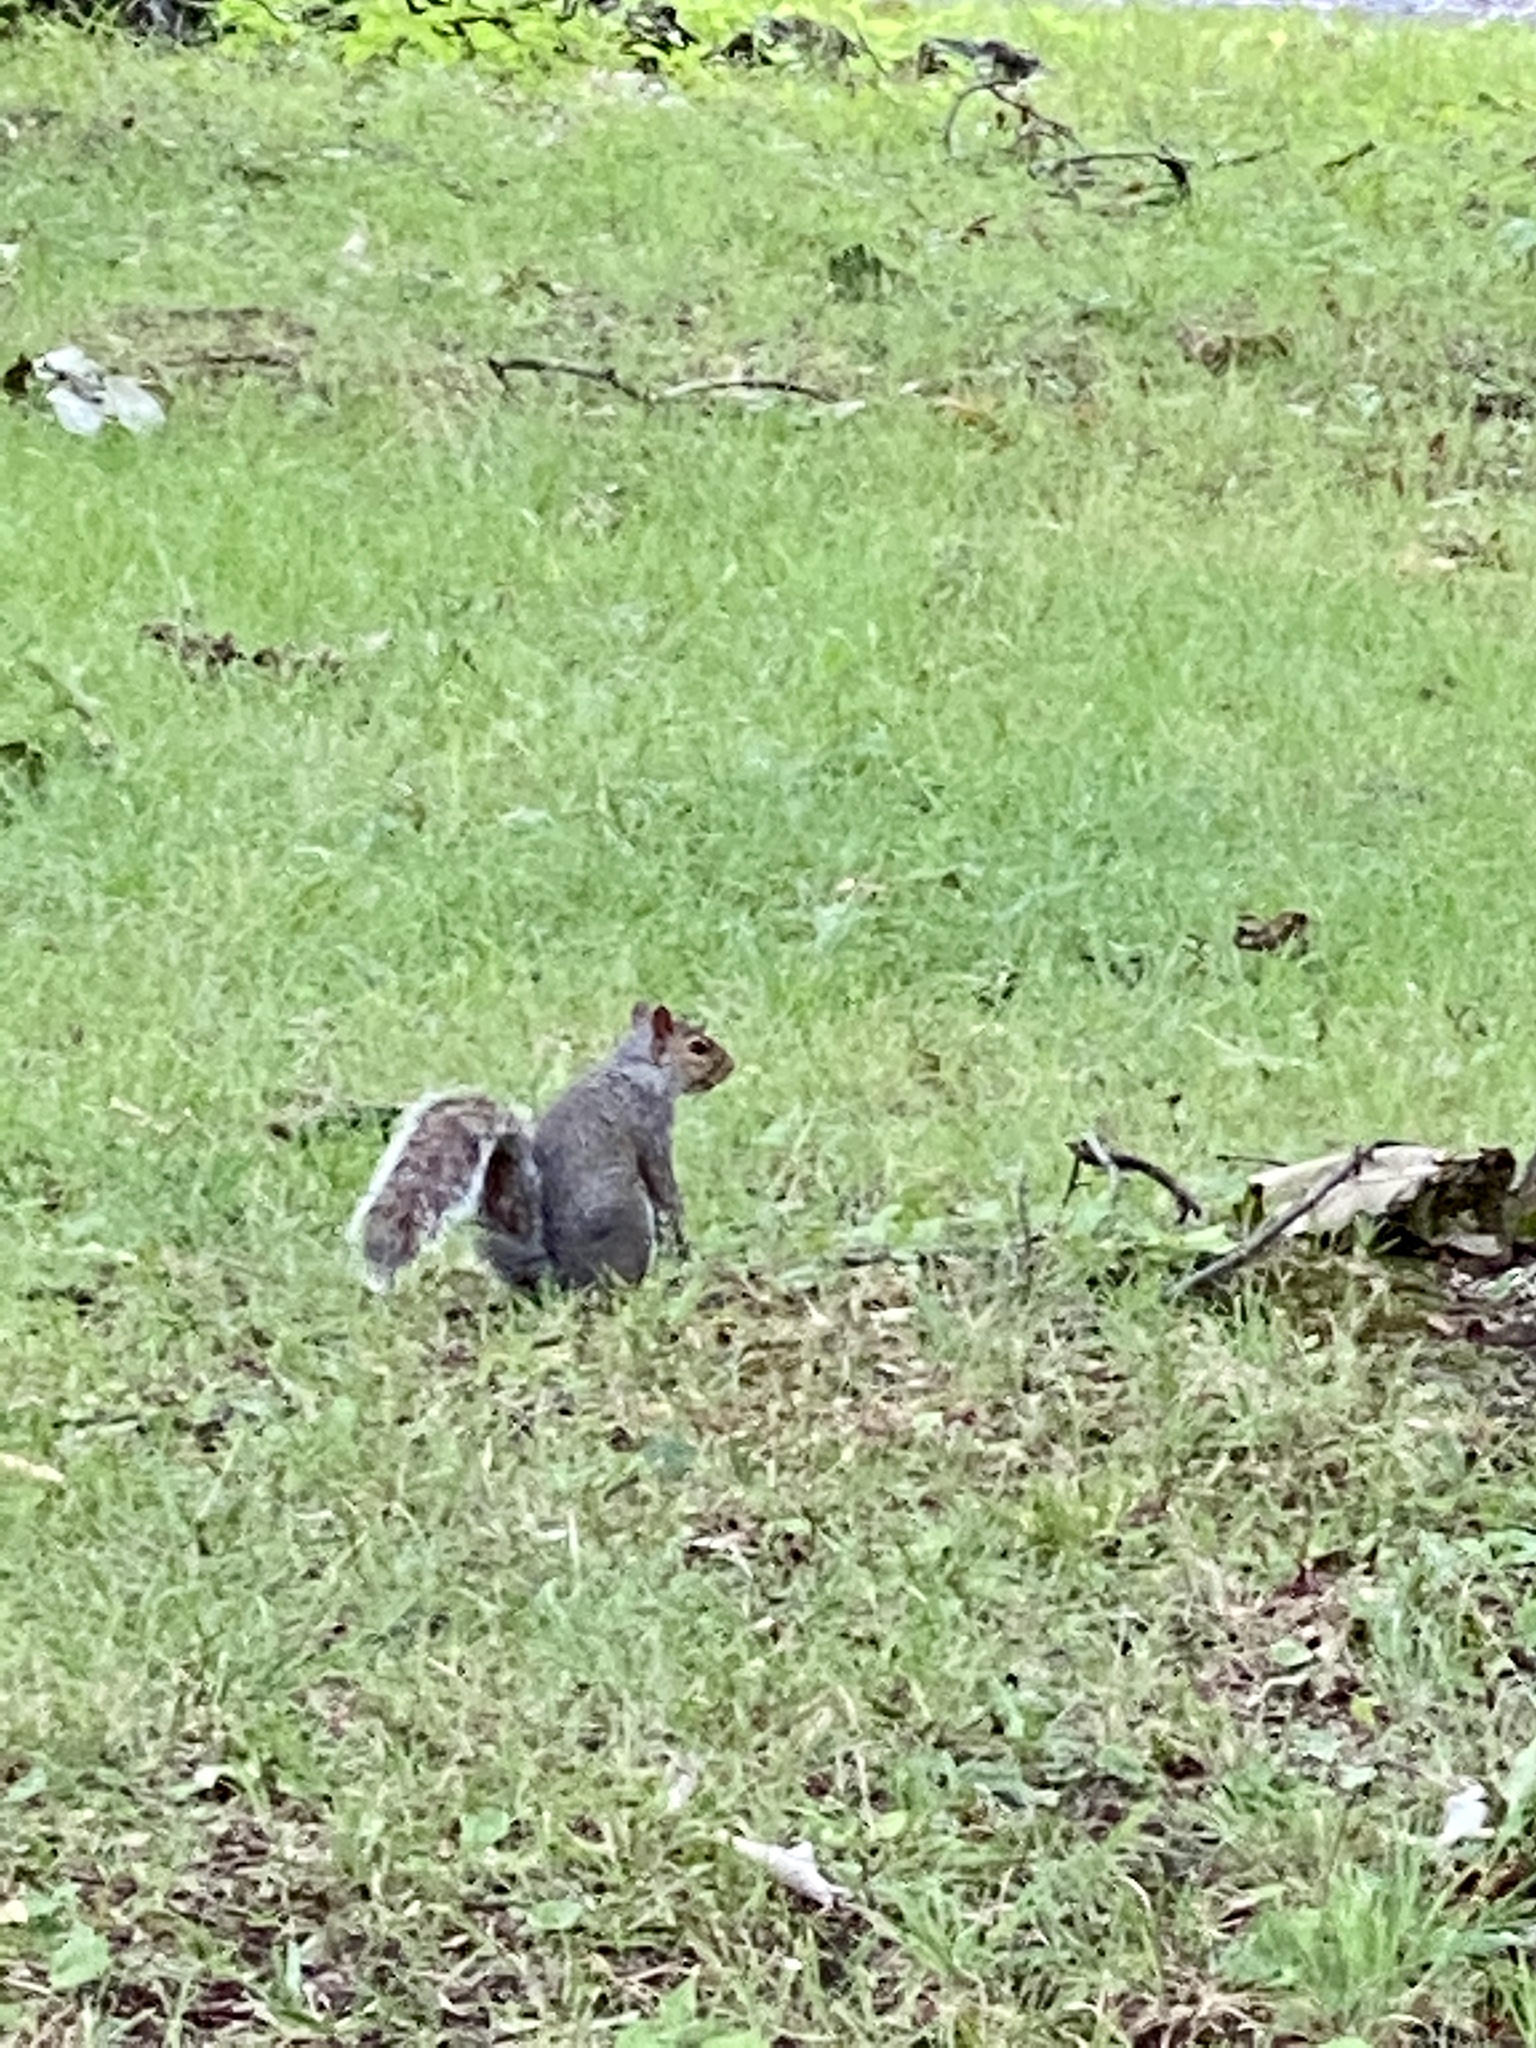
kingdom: Animalia
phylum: Chordata
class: Mammalia
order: Rodentia
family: Sciuridae
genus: Sciurus
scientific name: Sciurus carolinensis
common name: Eastern gray squirrel
